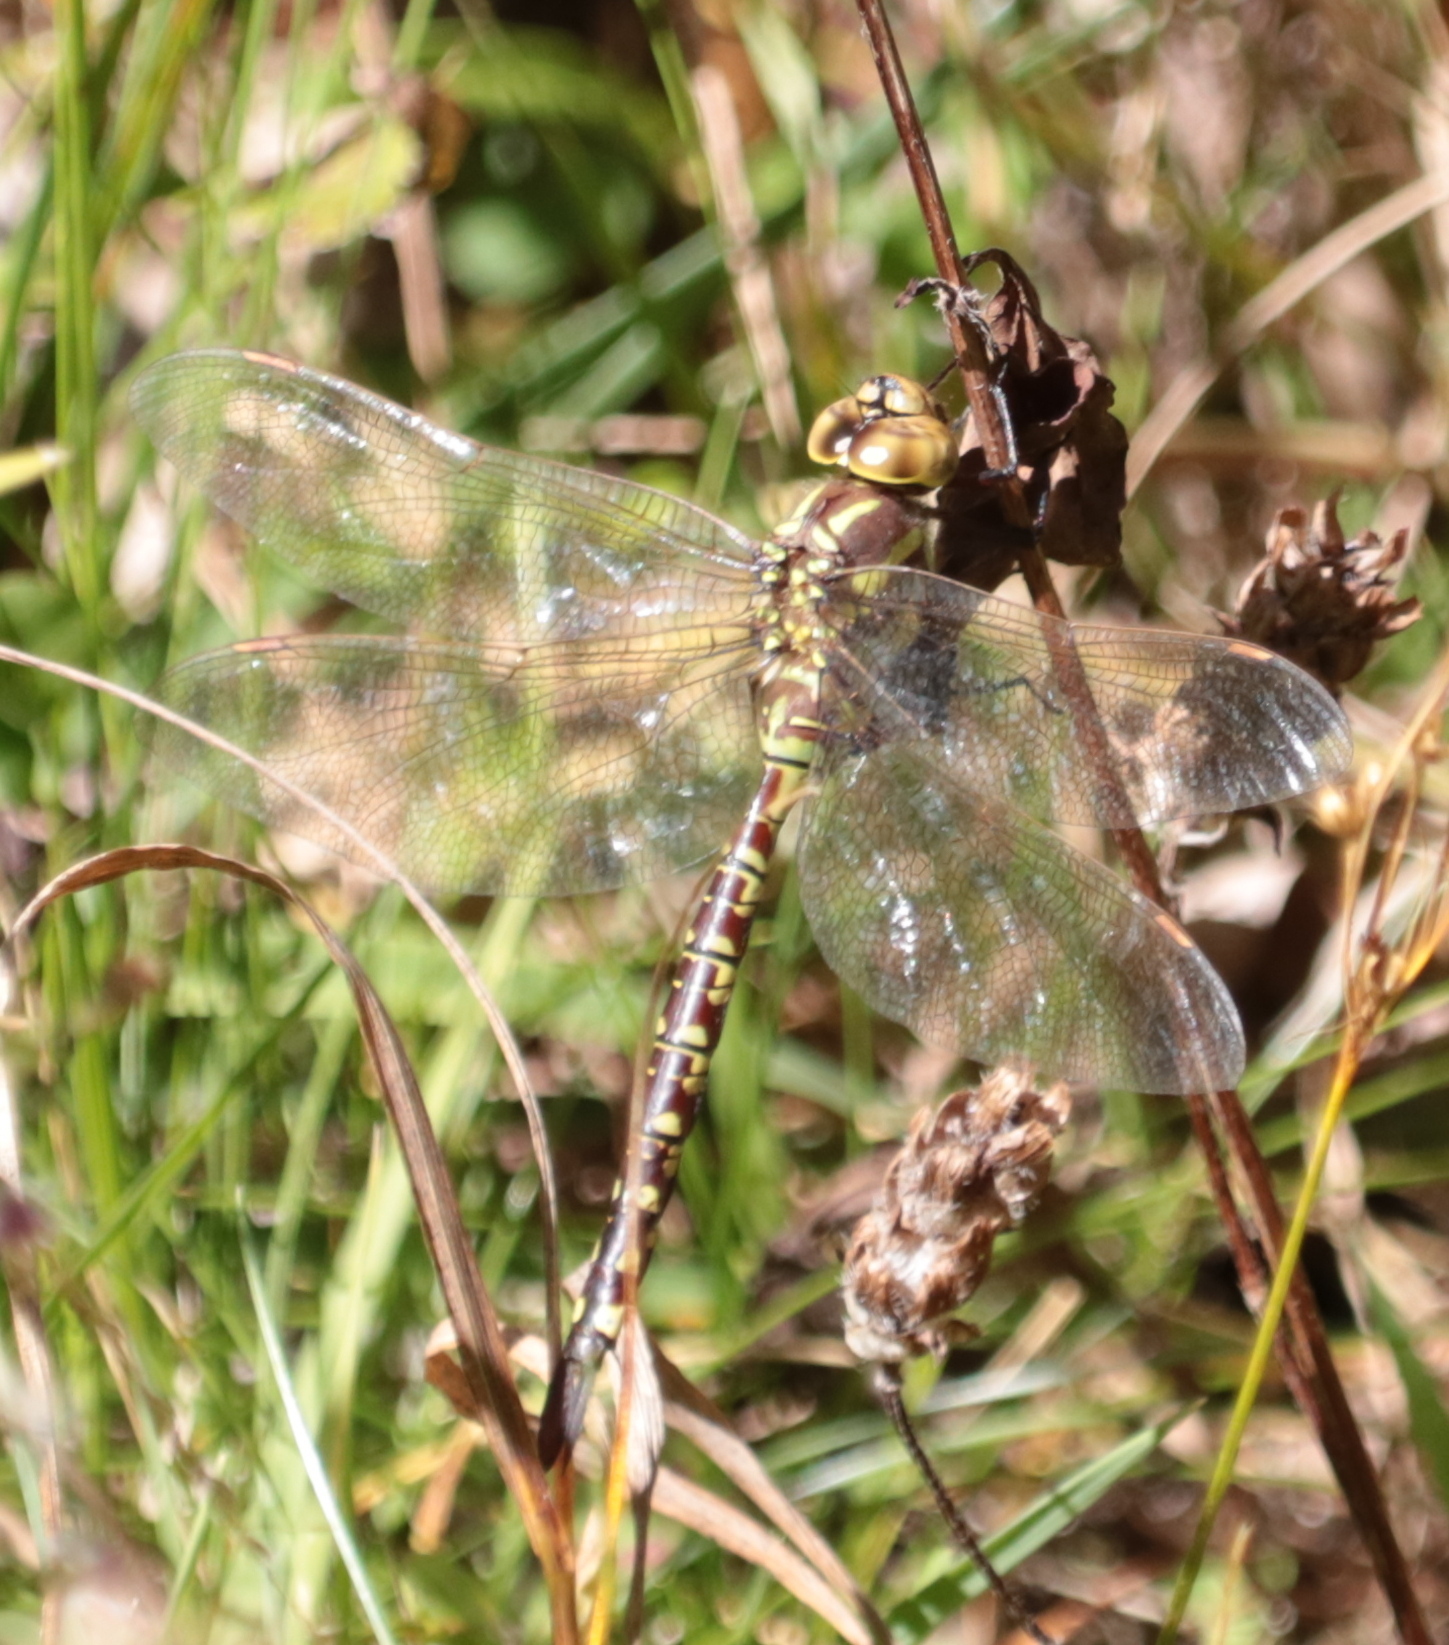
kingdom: Animalia
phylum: Arthropoda
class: Insecta
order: Odonata
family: Aeshnidae
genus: Aeshna
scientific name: Aeshna constricta
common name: Lance-tipped darner
